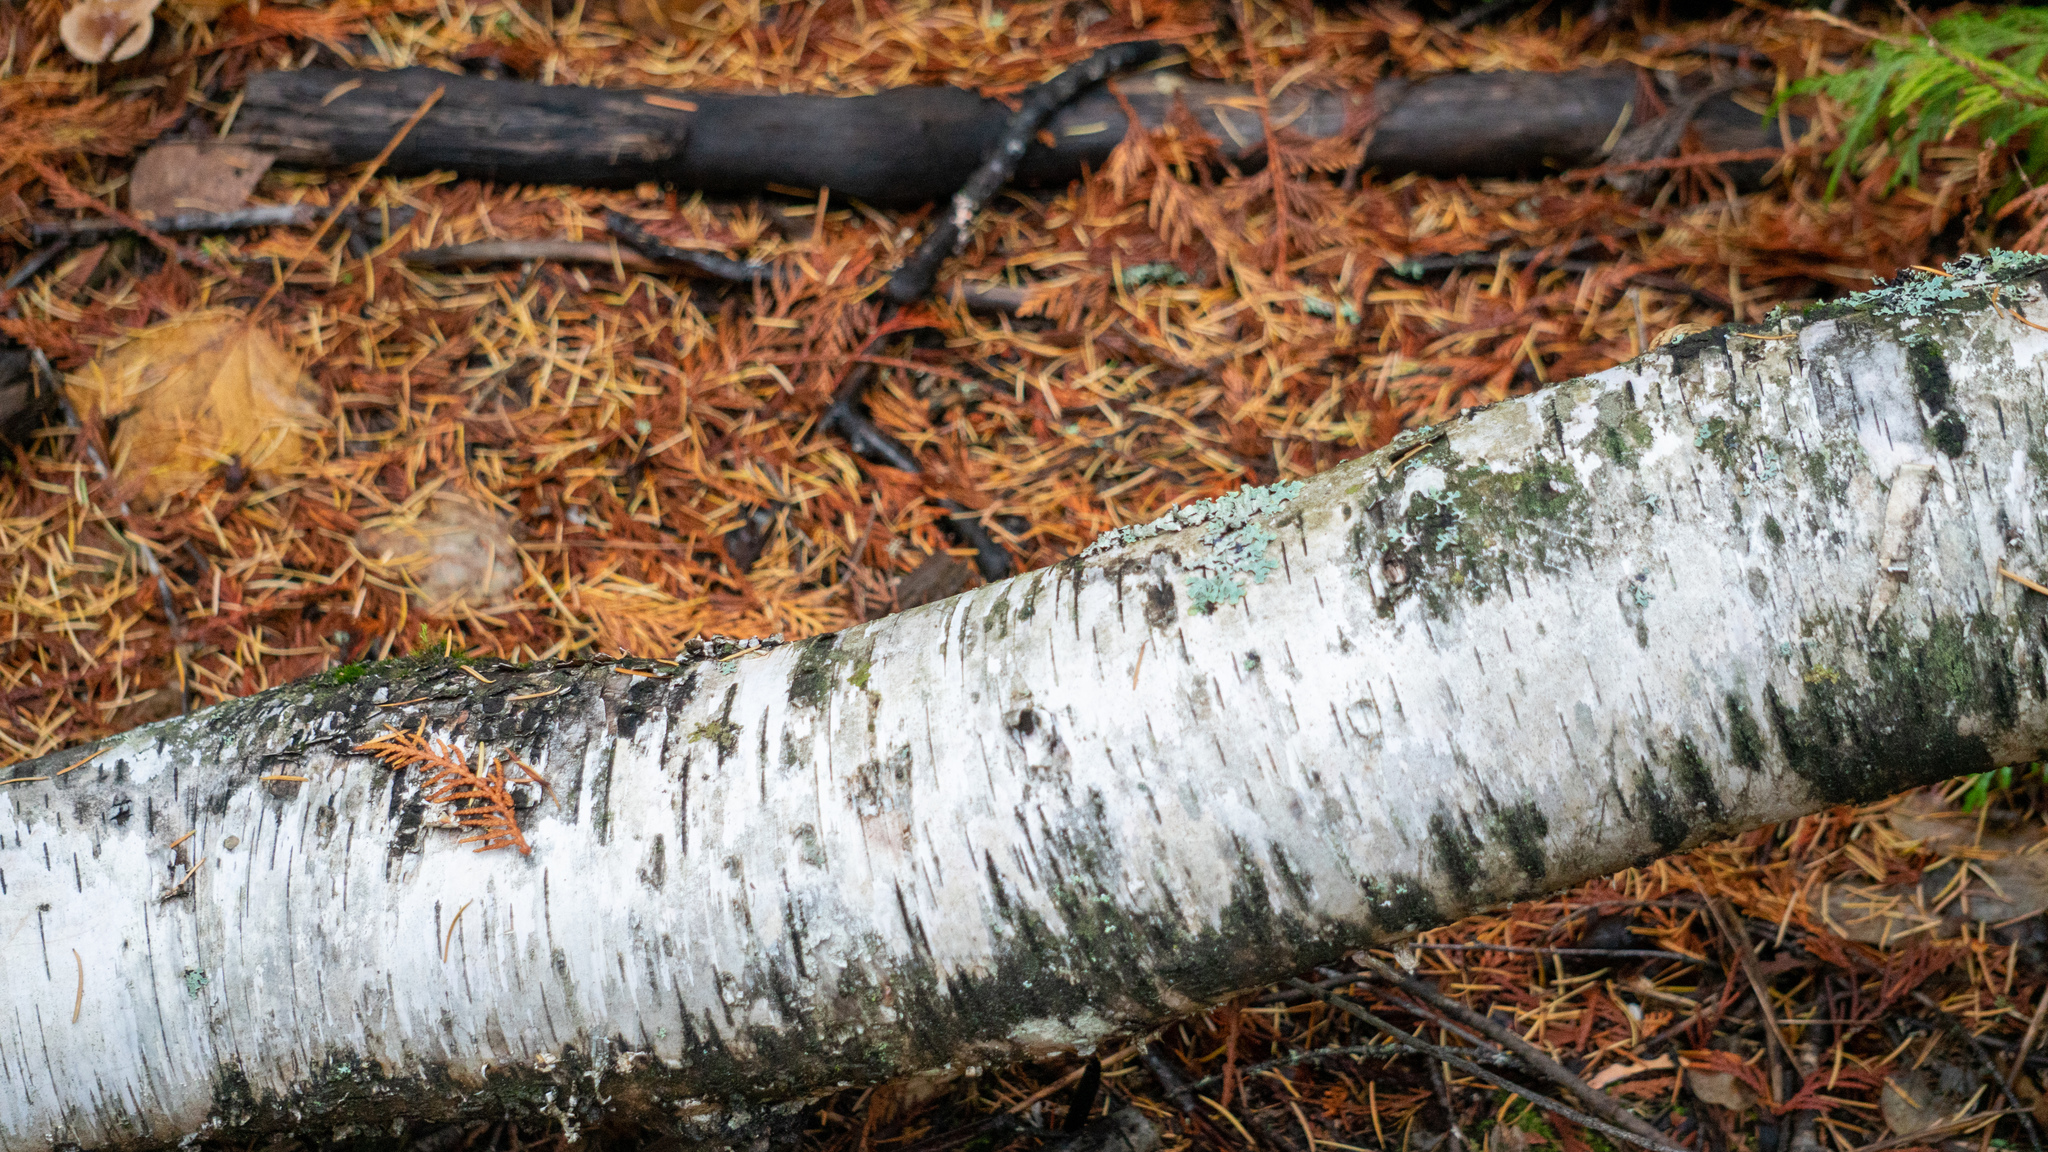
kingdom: Plantae
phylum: Tracheophyta
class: Magnoliopsida
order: Fagales
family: Betulaceae
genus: Betula
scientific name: Betula papyrifera
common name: Paper birch
